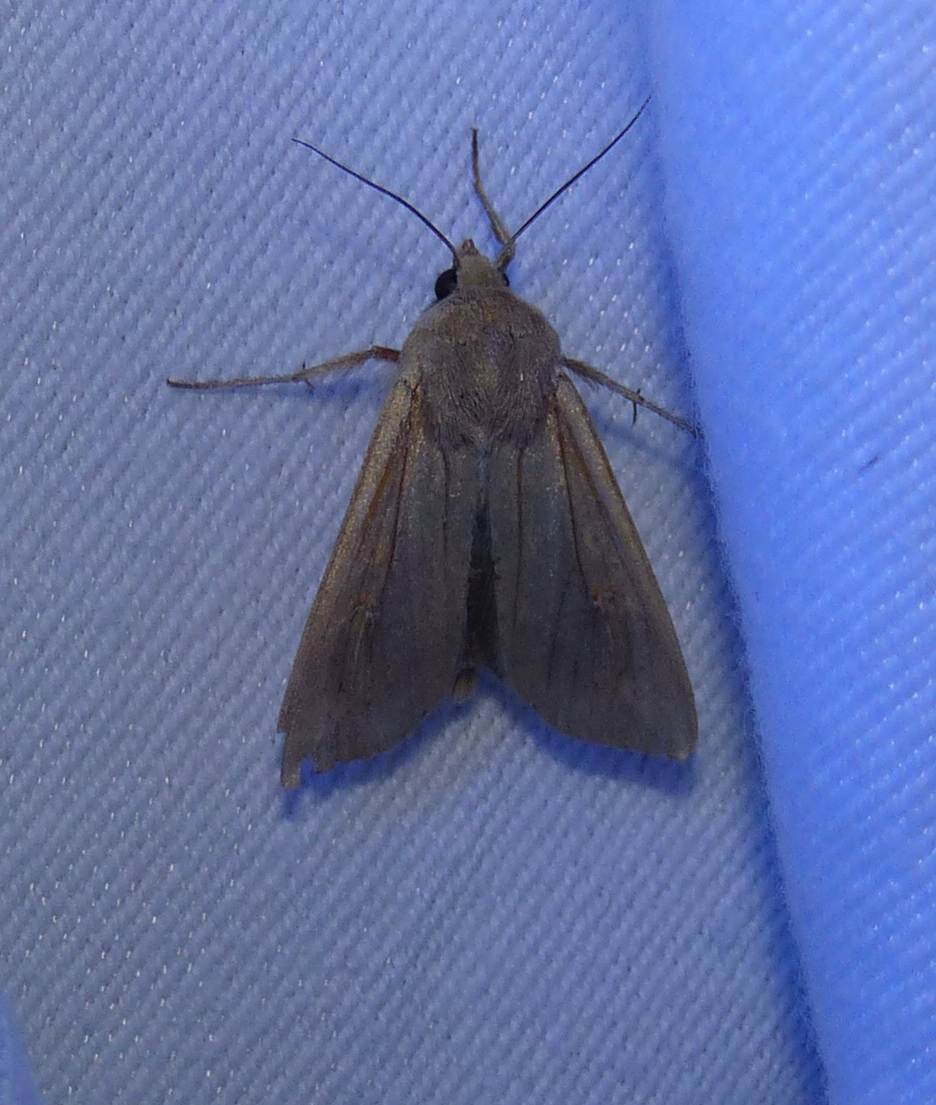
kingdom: Animalia
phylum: Arthropoda
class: Insecta
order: Lepidoptera
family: Noctuidae
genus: Mythimna
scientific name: Mythimna unipuncta
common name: White-speck
